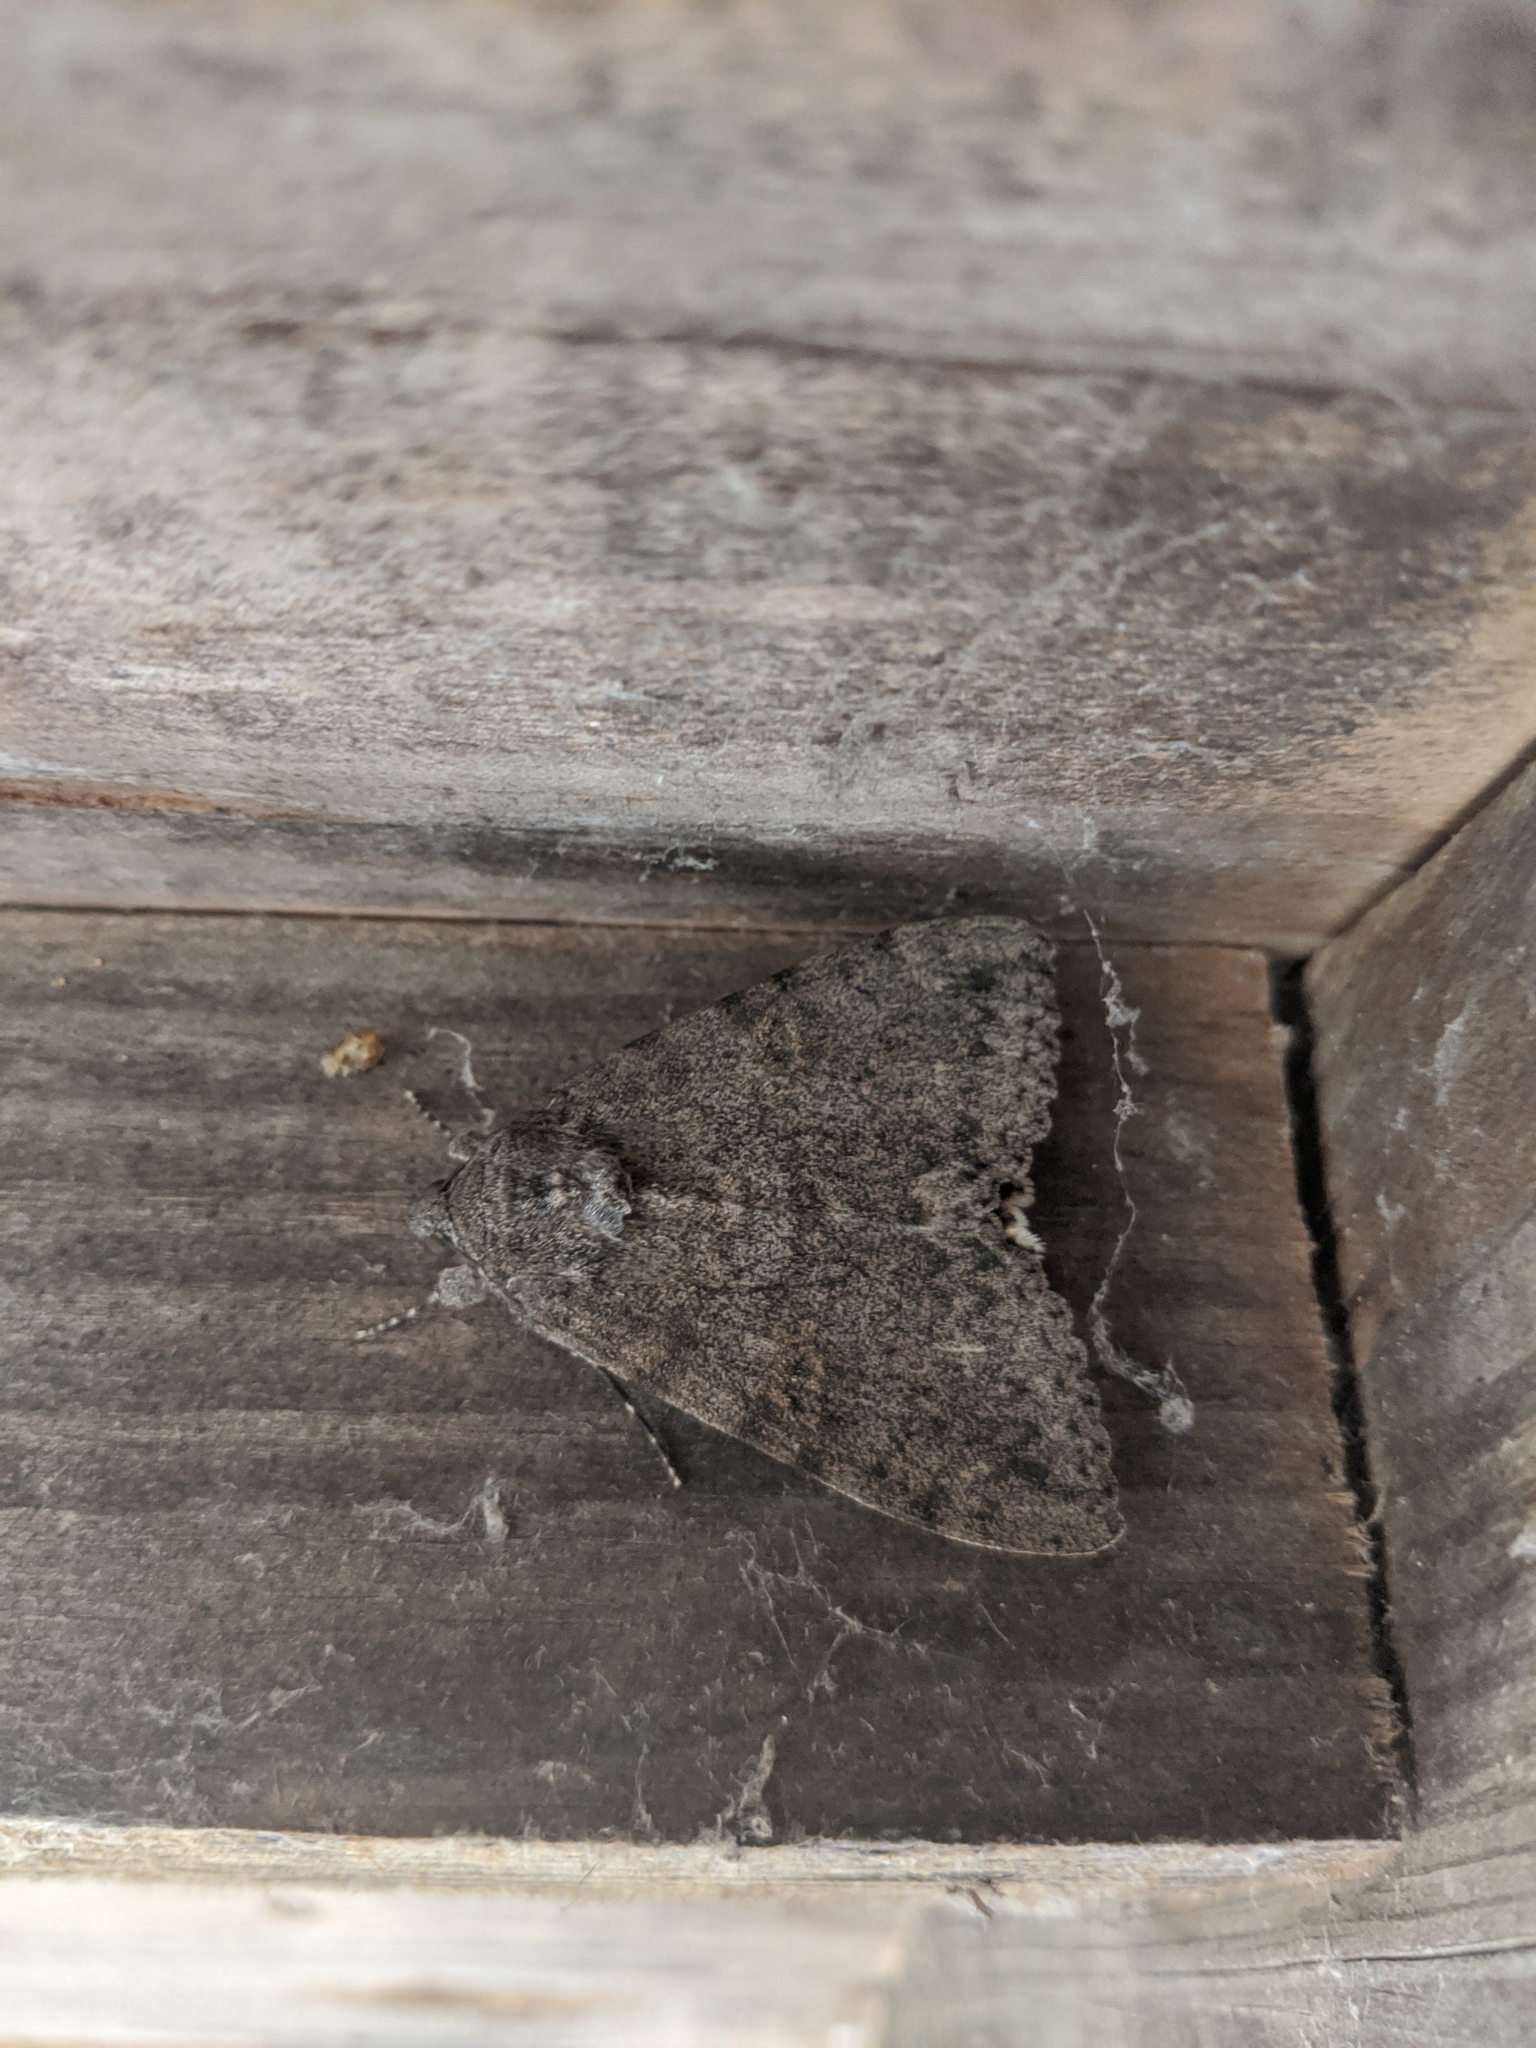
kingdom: Animalia
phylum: Arthropoda
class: Insecta
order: Lepidoptera
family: Erebidae
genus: Catocala
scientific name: Catocala junctura
